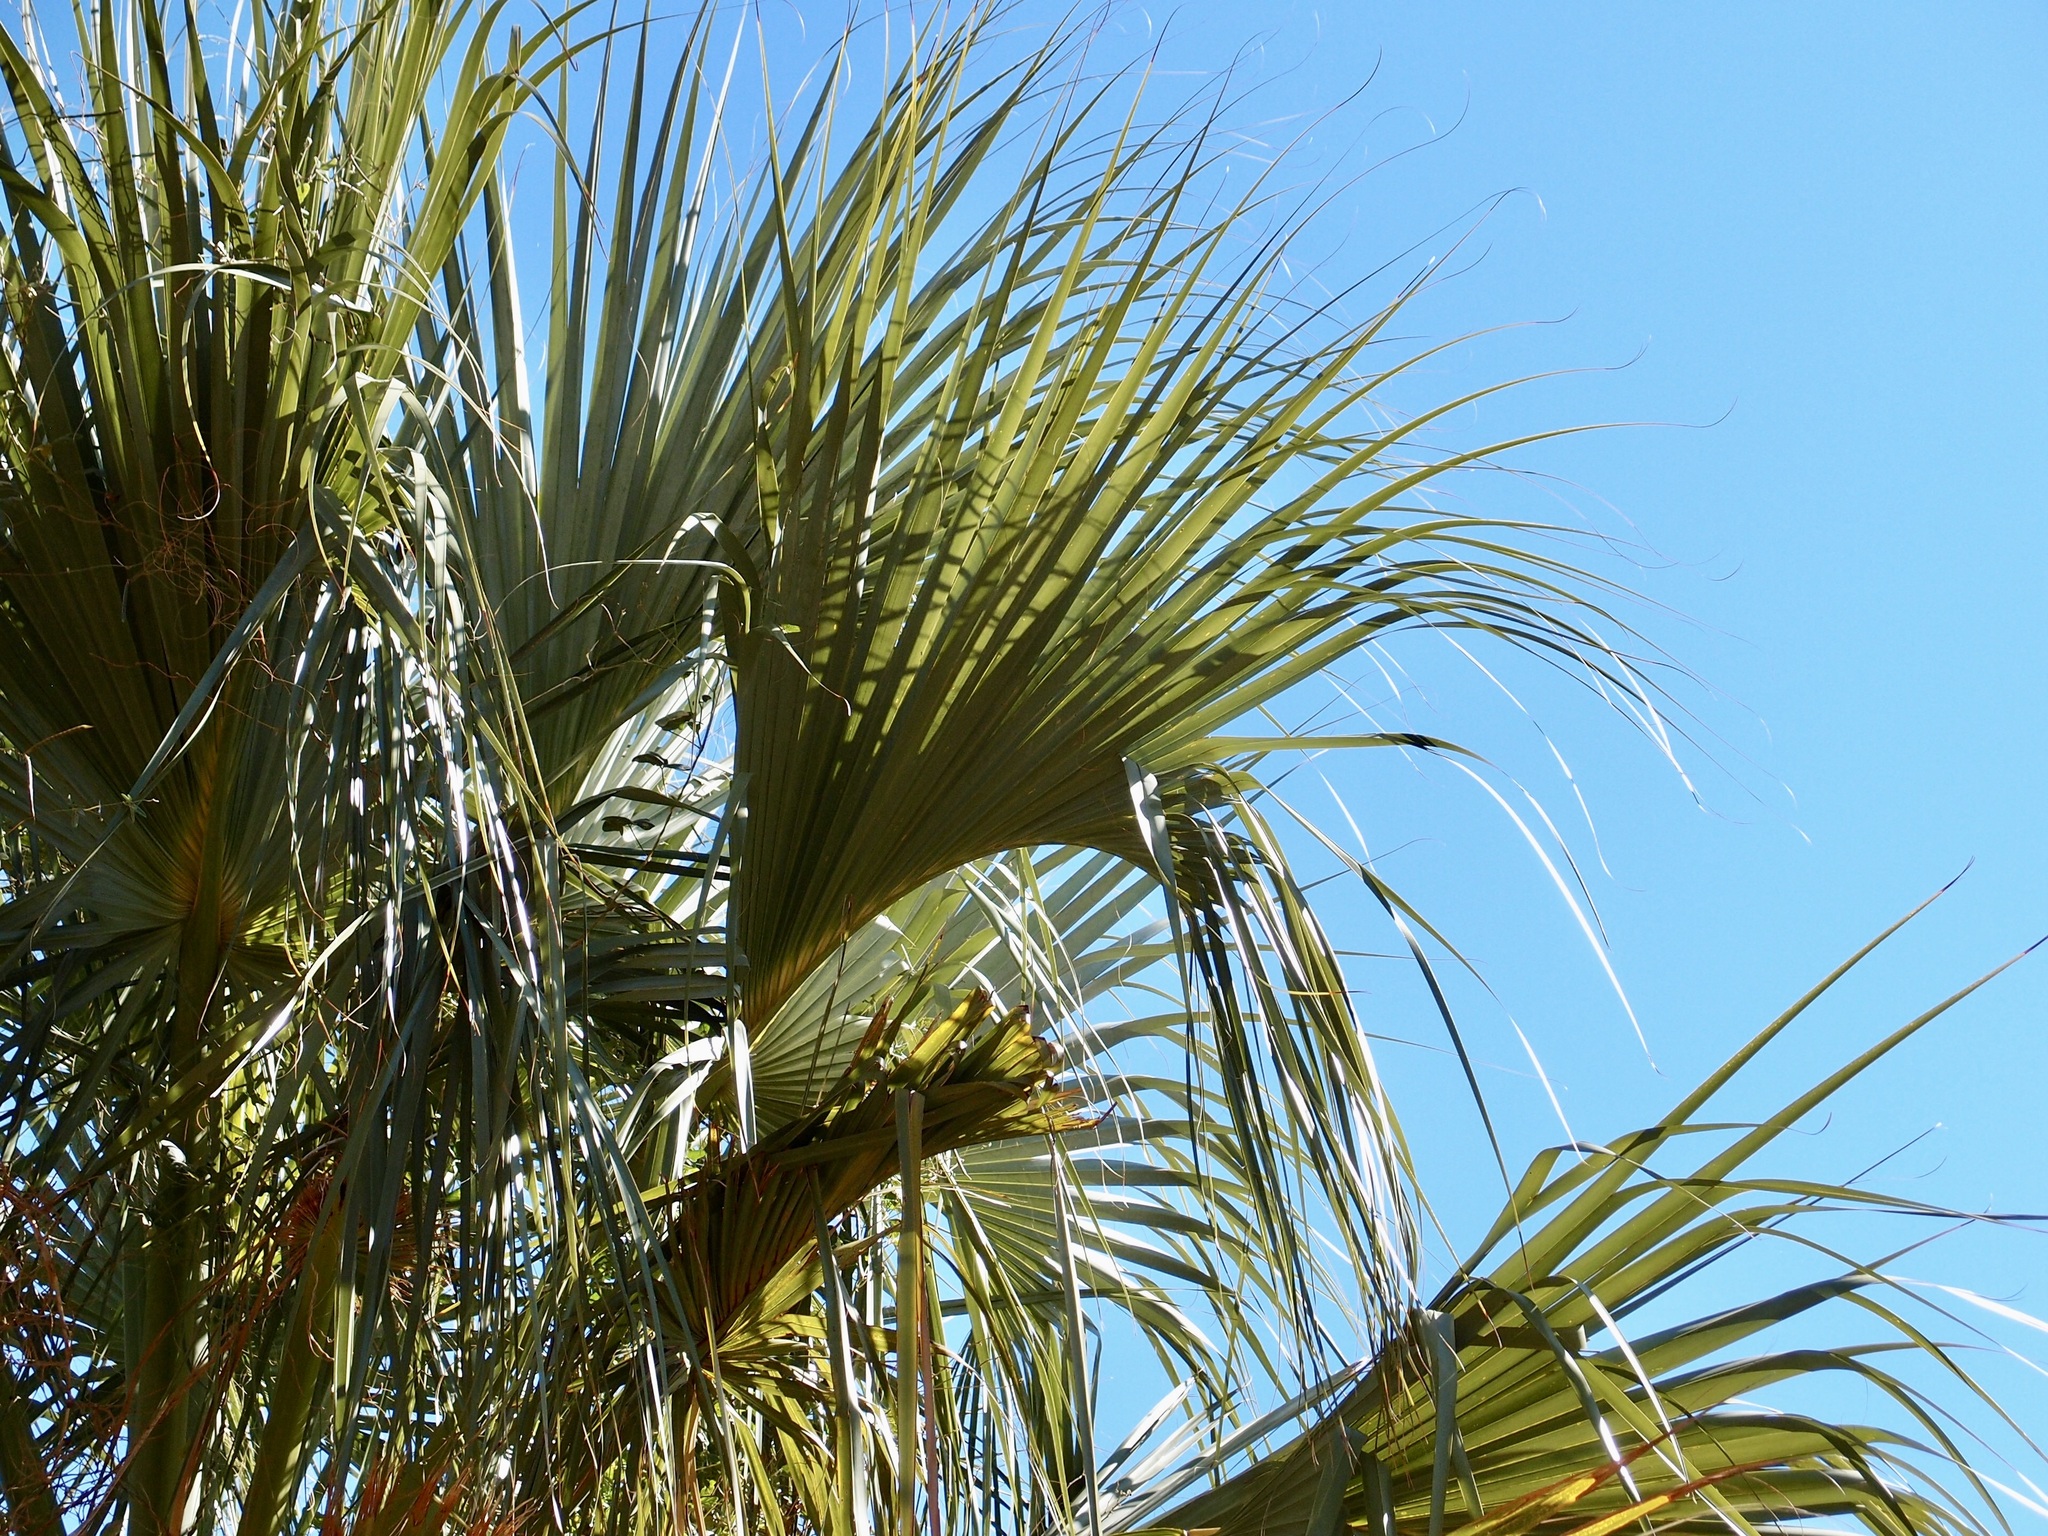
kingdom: Plantae
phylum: Tracheophyta
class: Liliopsida
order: Arecales
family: Arecaceae
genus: Sabal
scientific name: Sabal uresana
